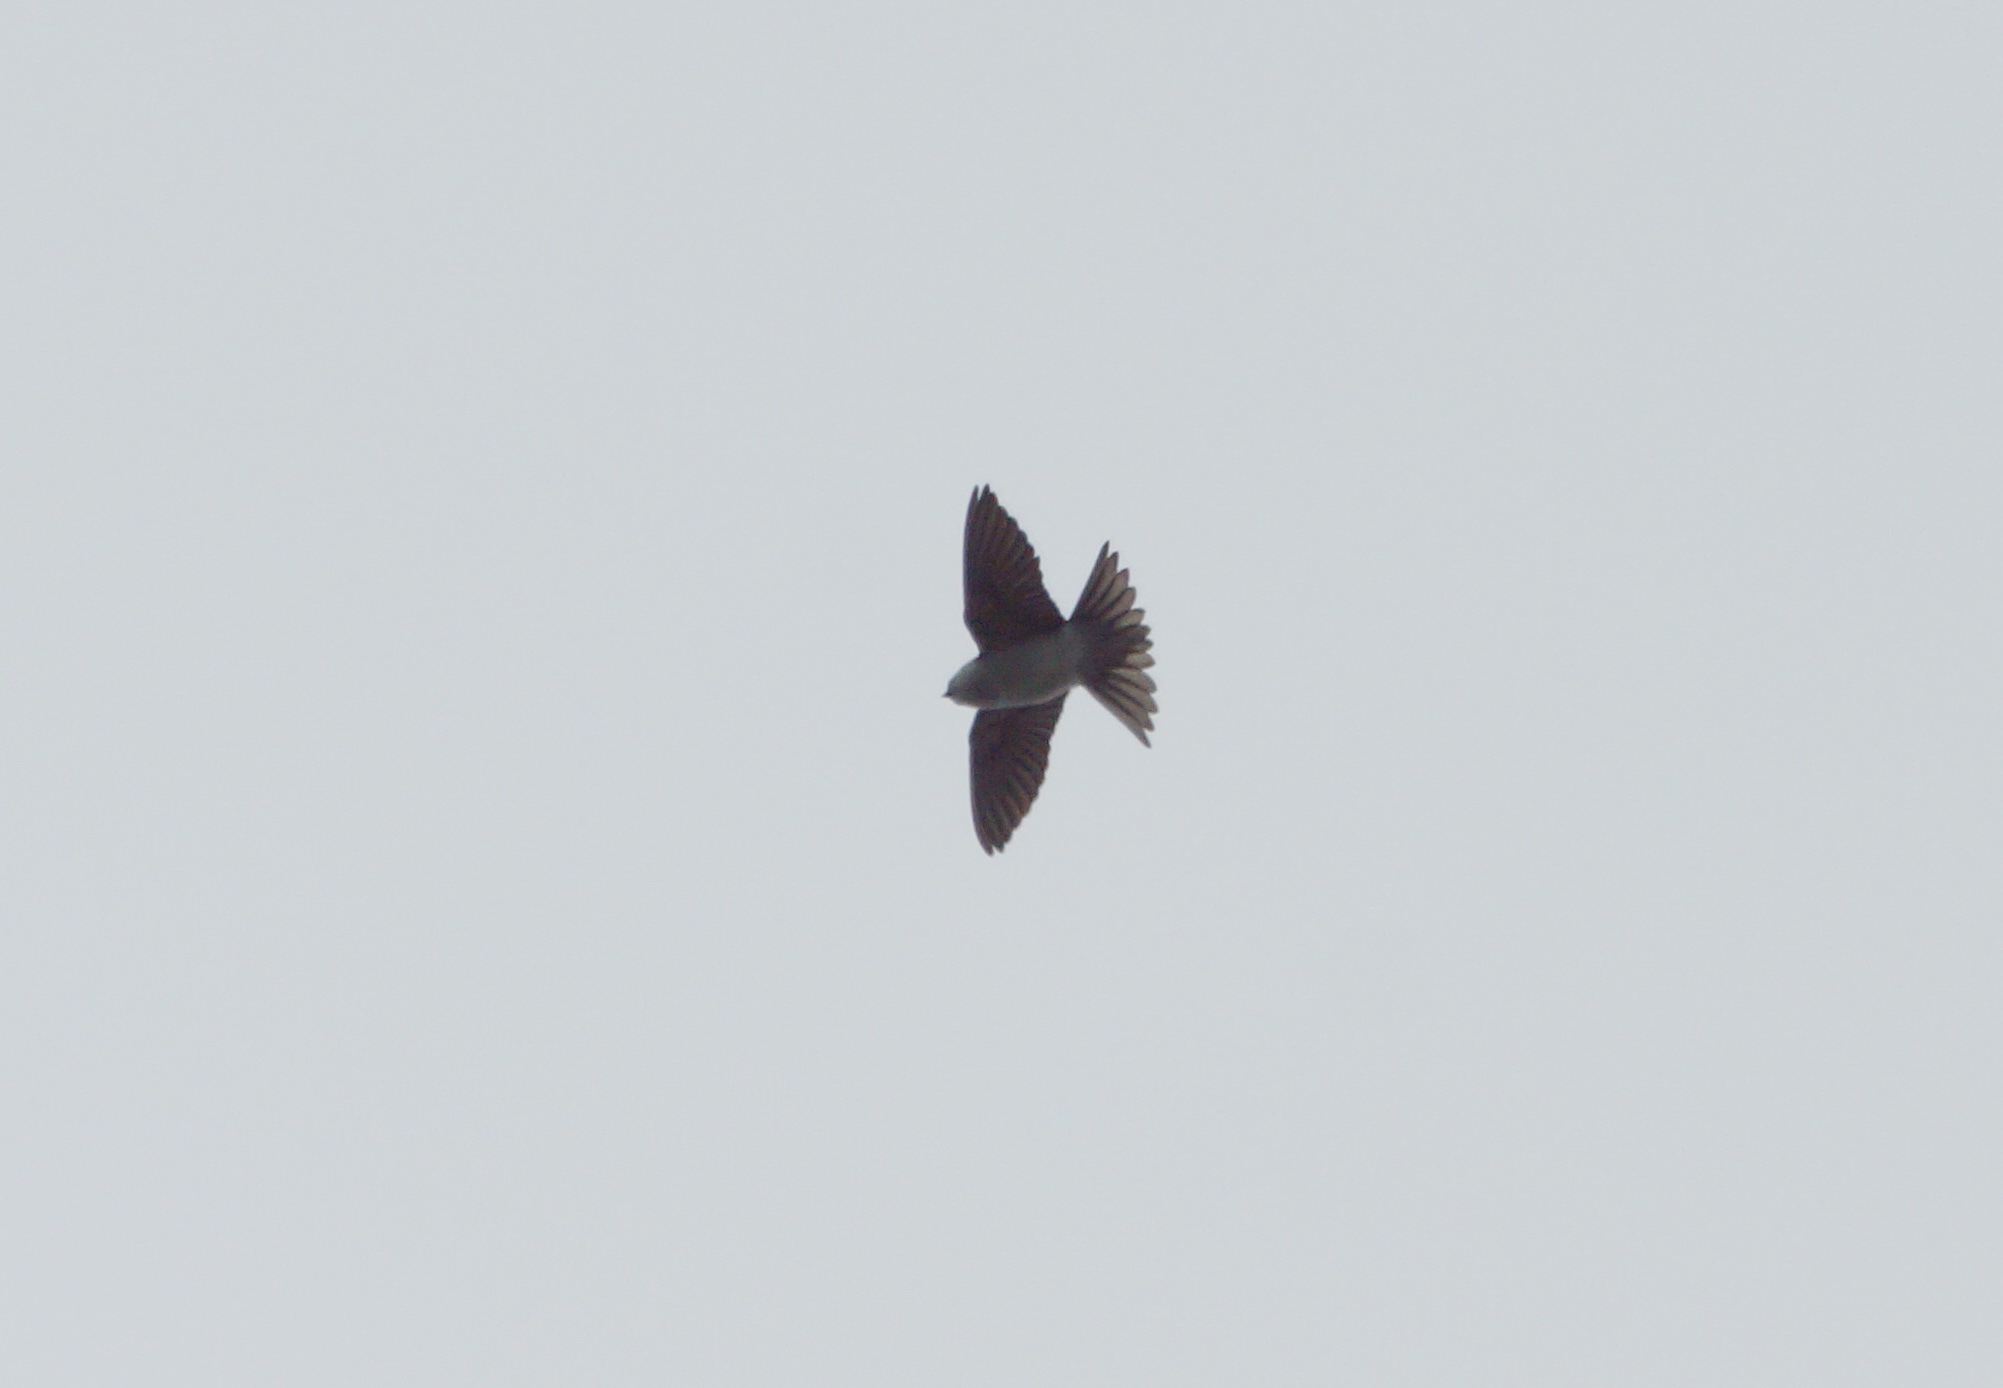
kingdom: Animalia
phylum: Chordata
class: Aves
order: Passeriformes
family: Hirundinidae
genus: Delichon
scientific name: Delichon urbicum
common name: Common house martin
